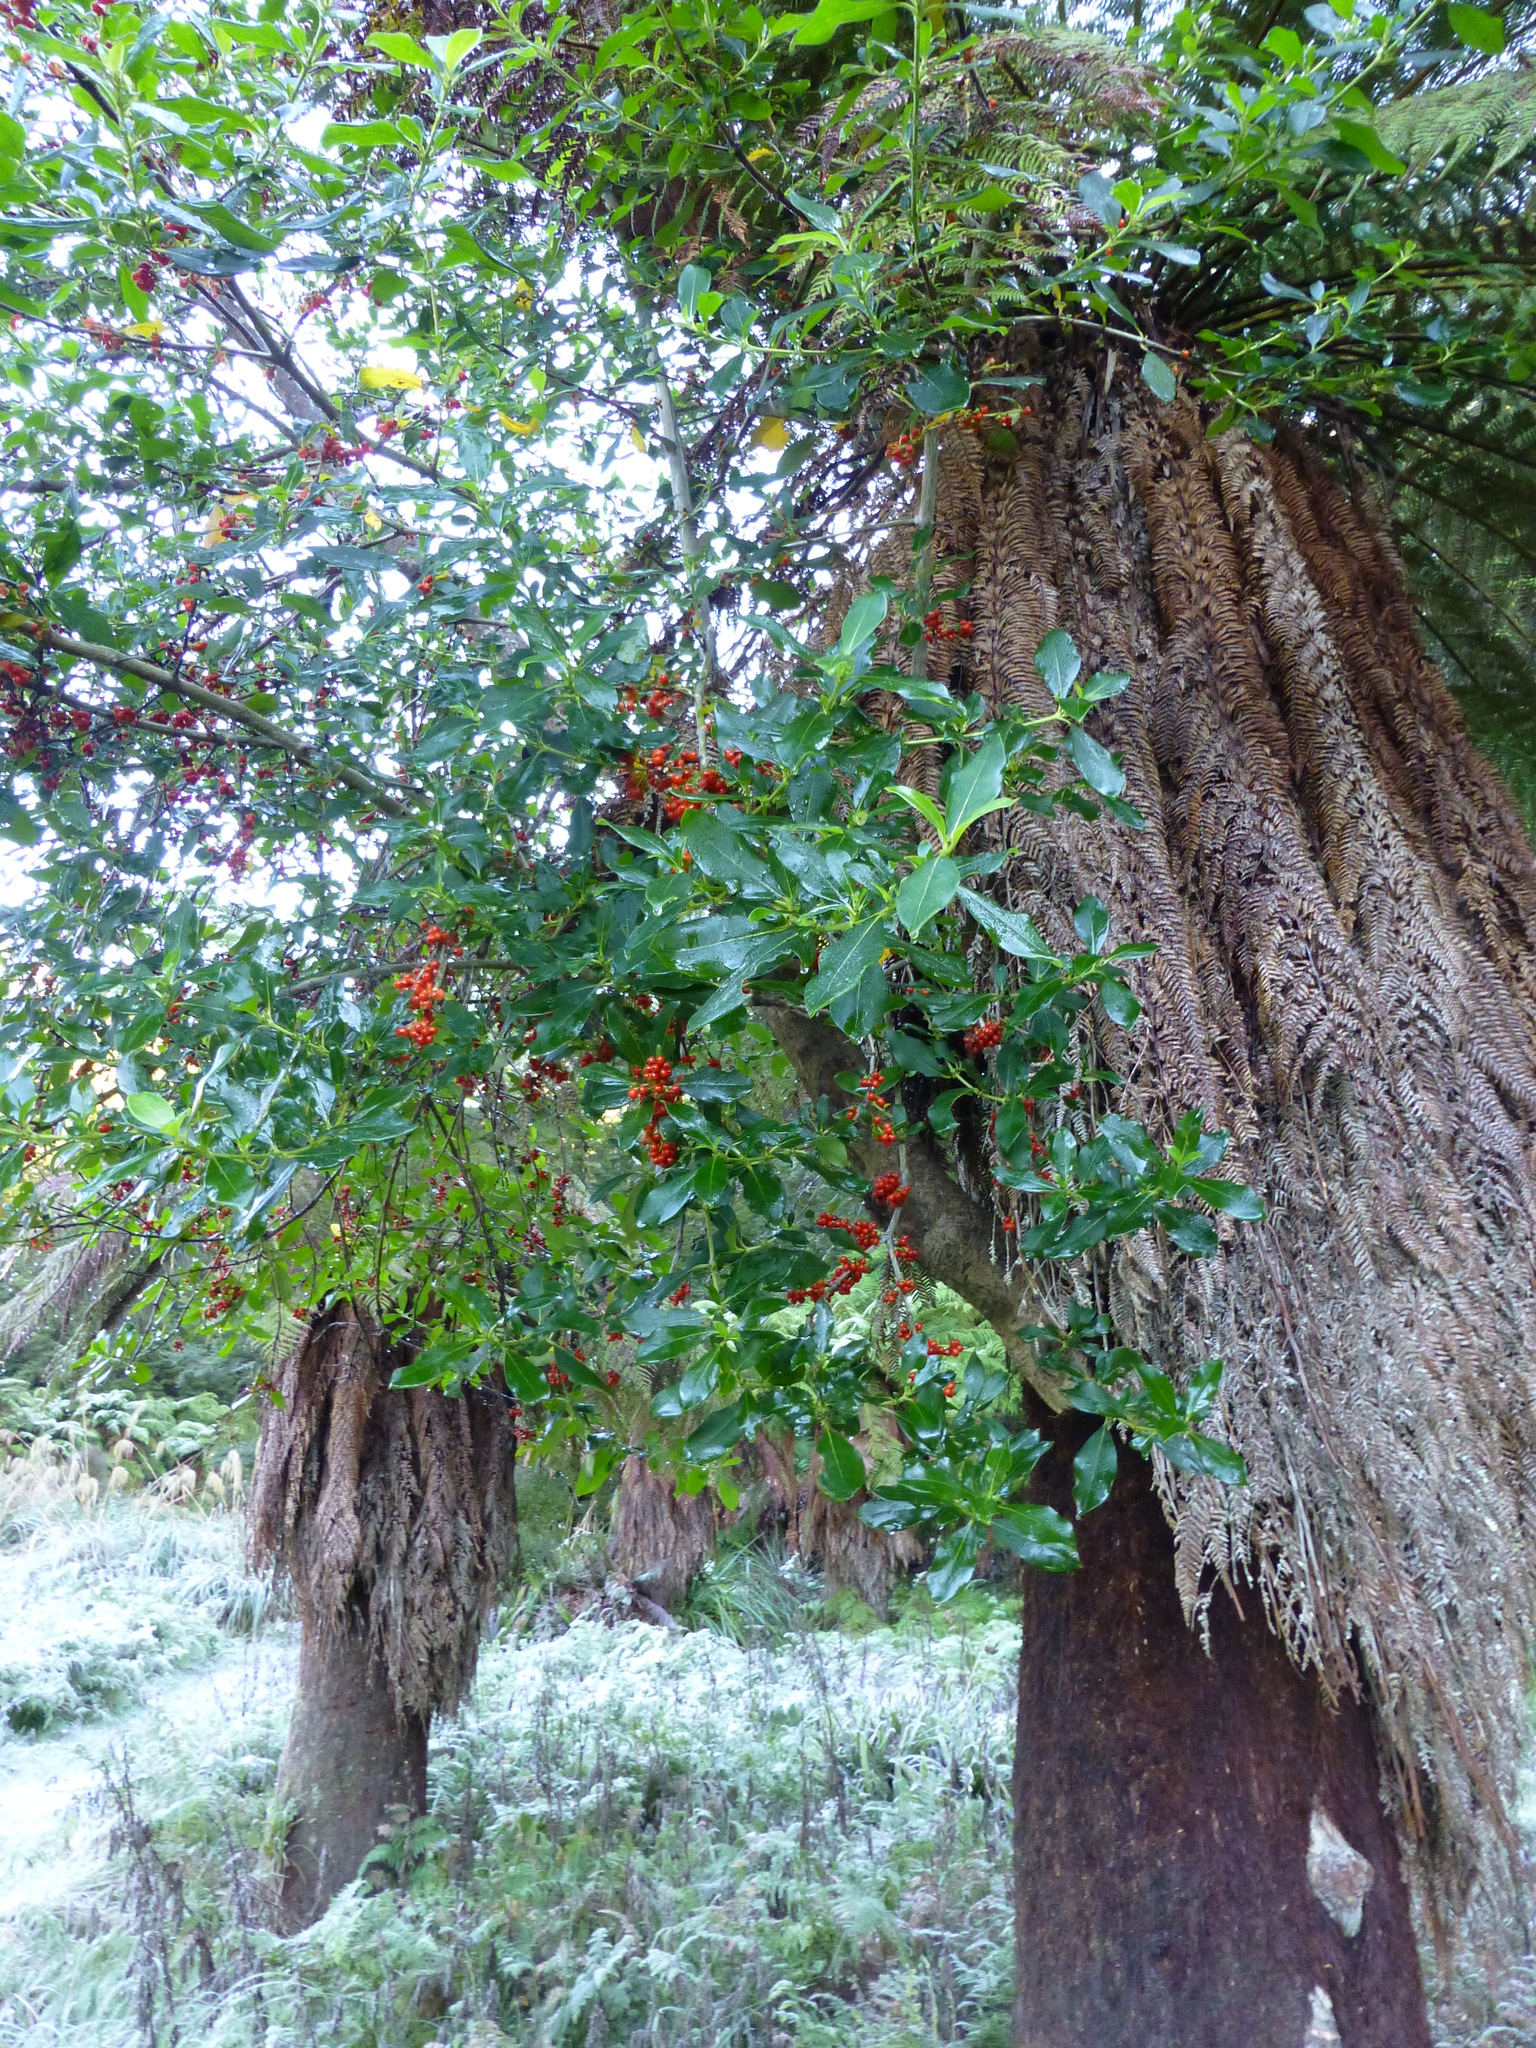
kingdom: Plantae
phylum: Tracheophyta
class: Magnoliopsida
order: Gentianales
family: Rubiaceae
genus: Coprosma
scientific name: Coprosma robusta
